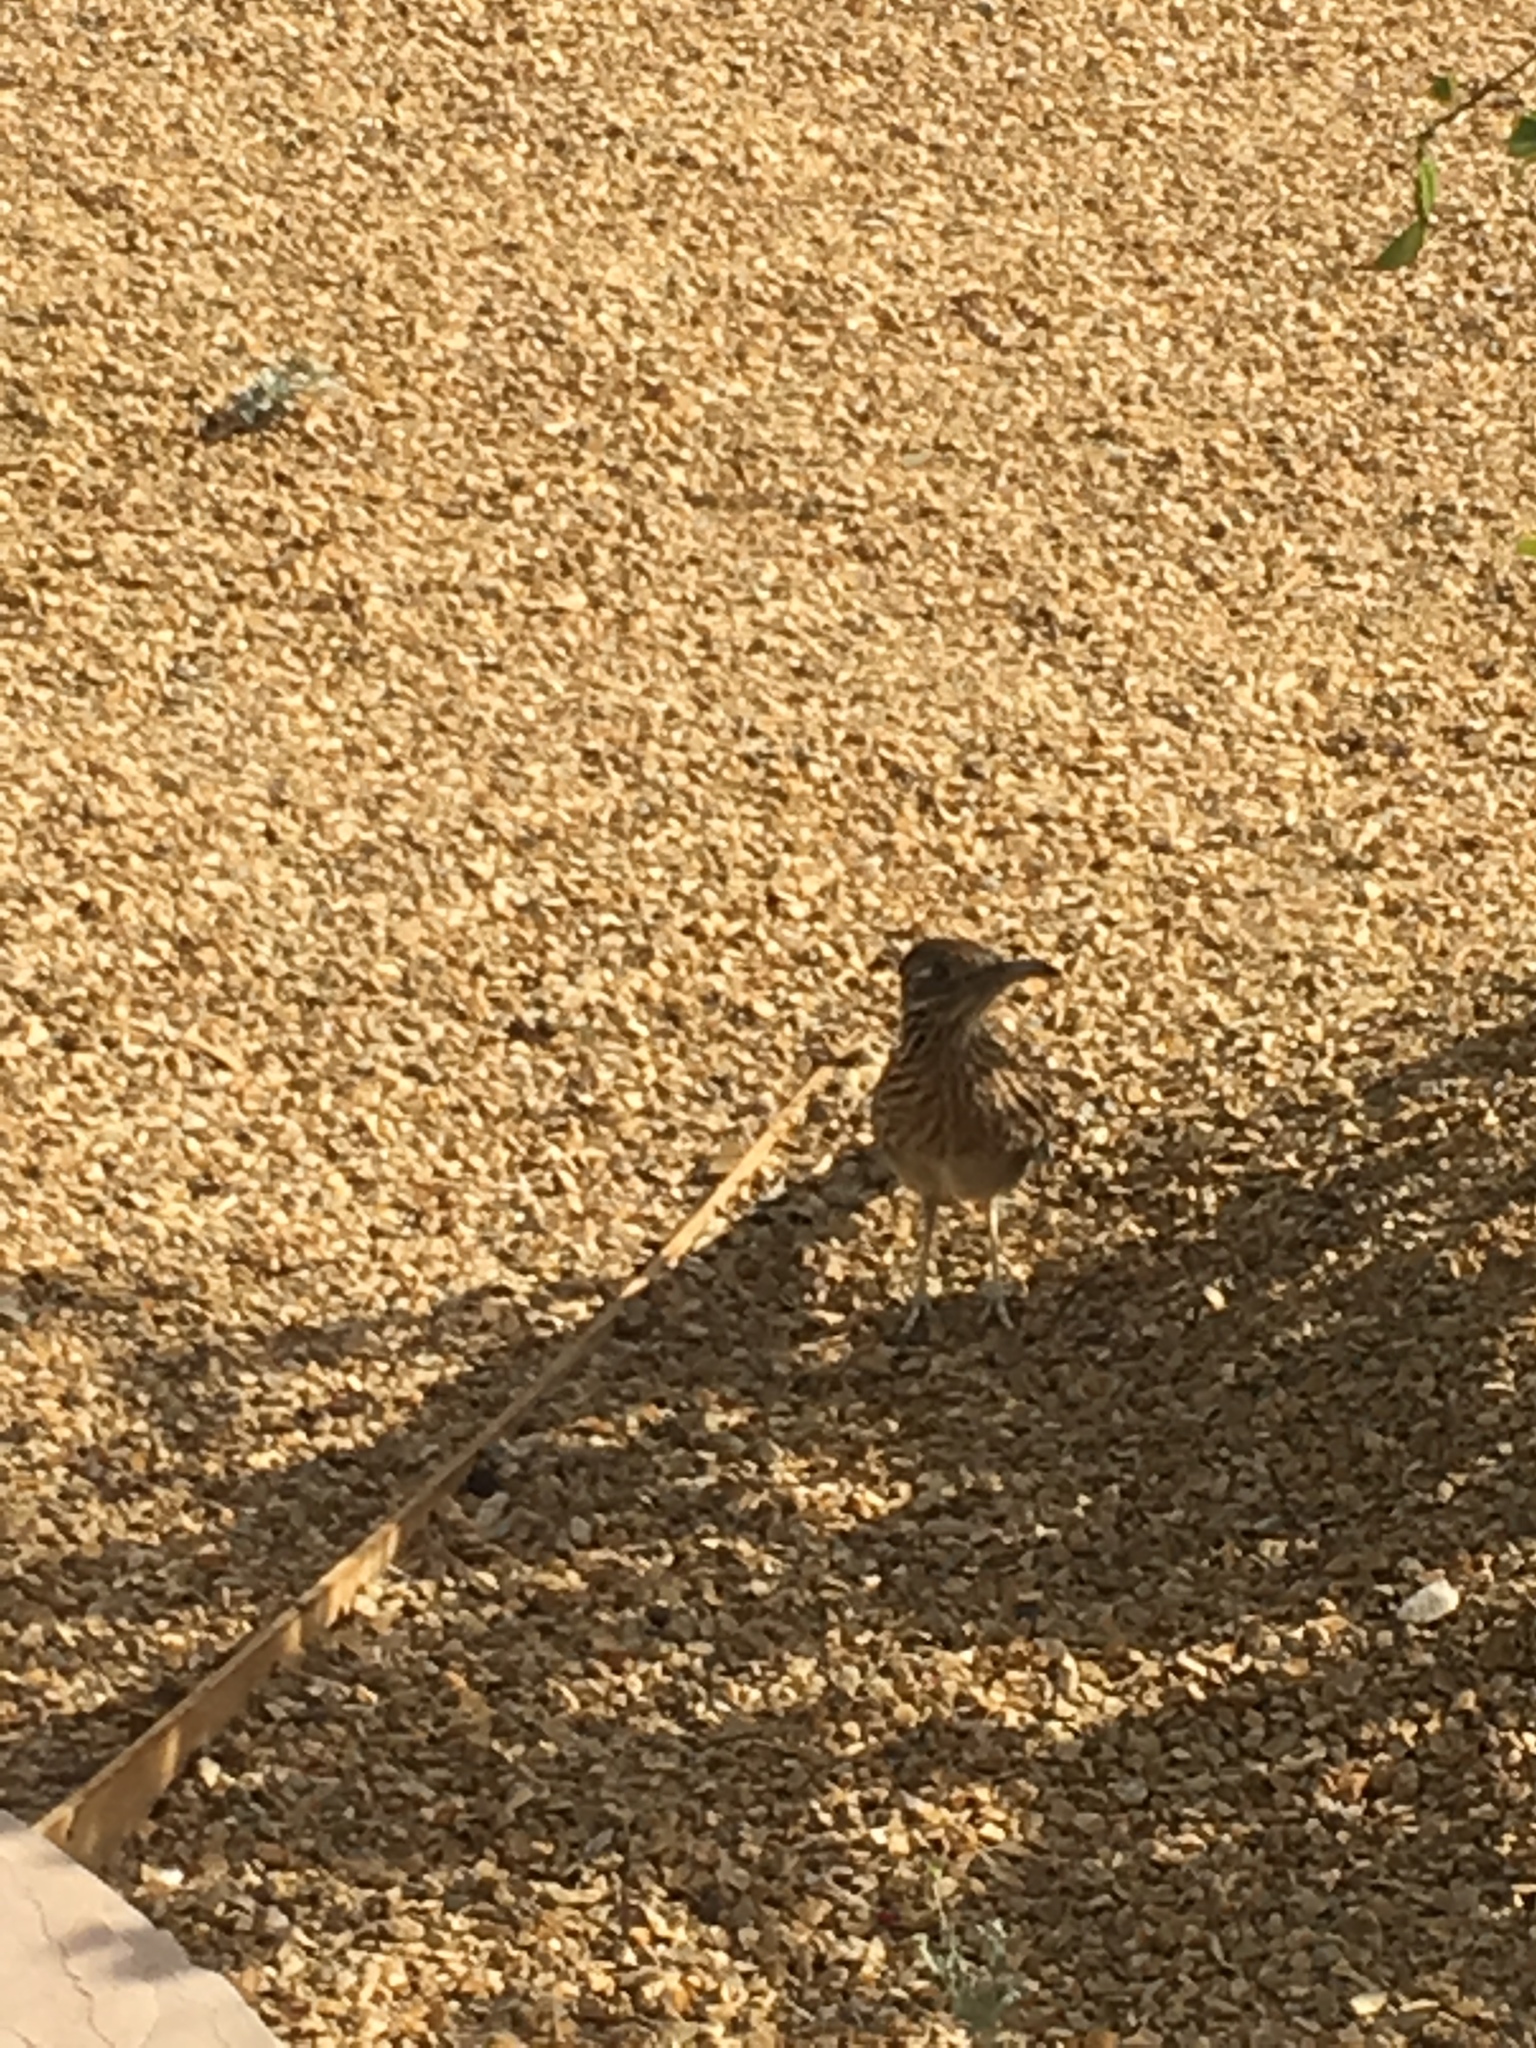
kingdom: Animalia
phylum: Chordata
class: Aves
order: Cuculiformes
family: Cuculidae
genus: Geococcyx
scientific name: Geococcyx californianus
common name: Greater roadrunner
